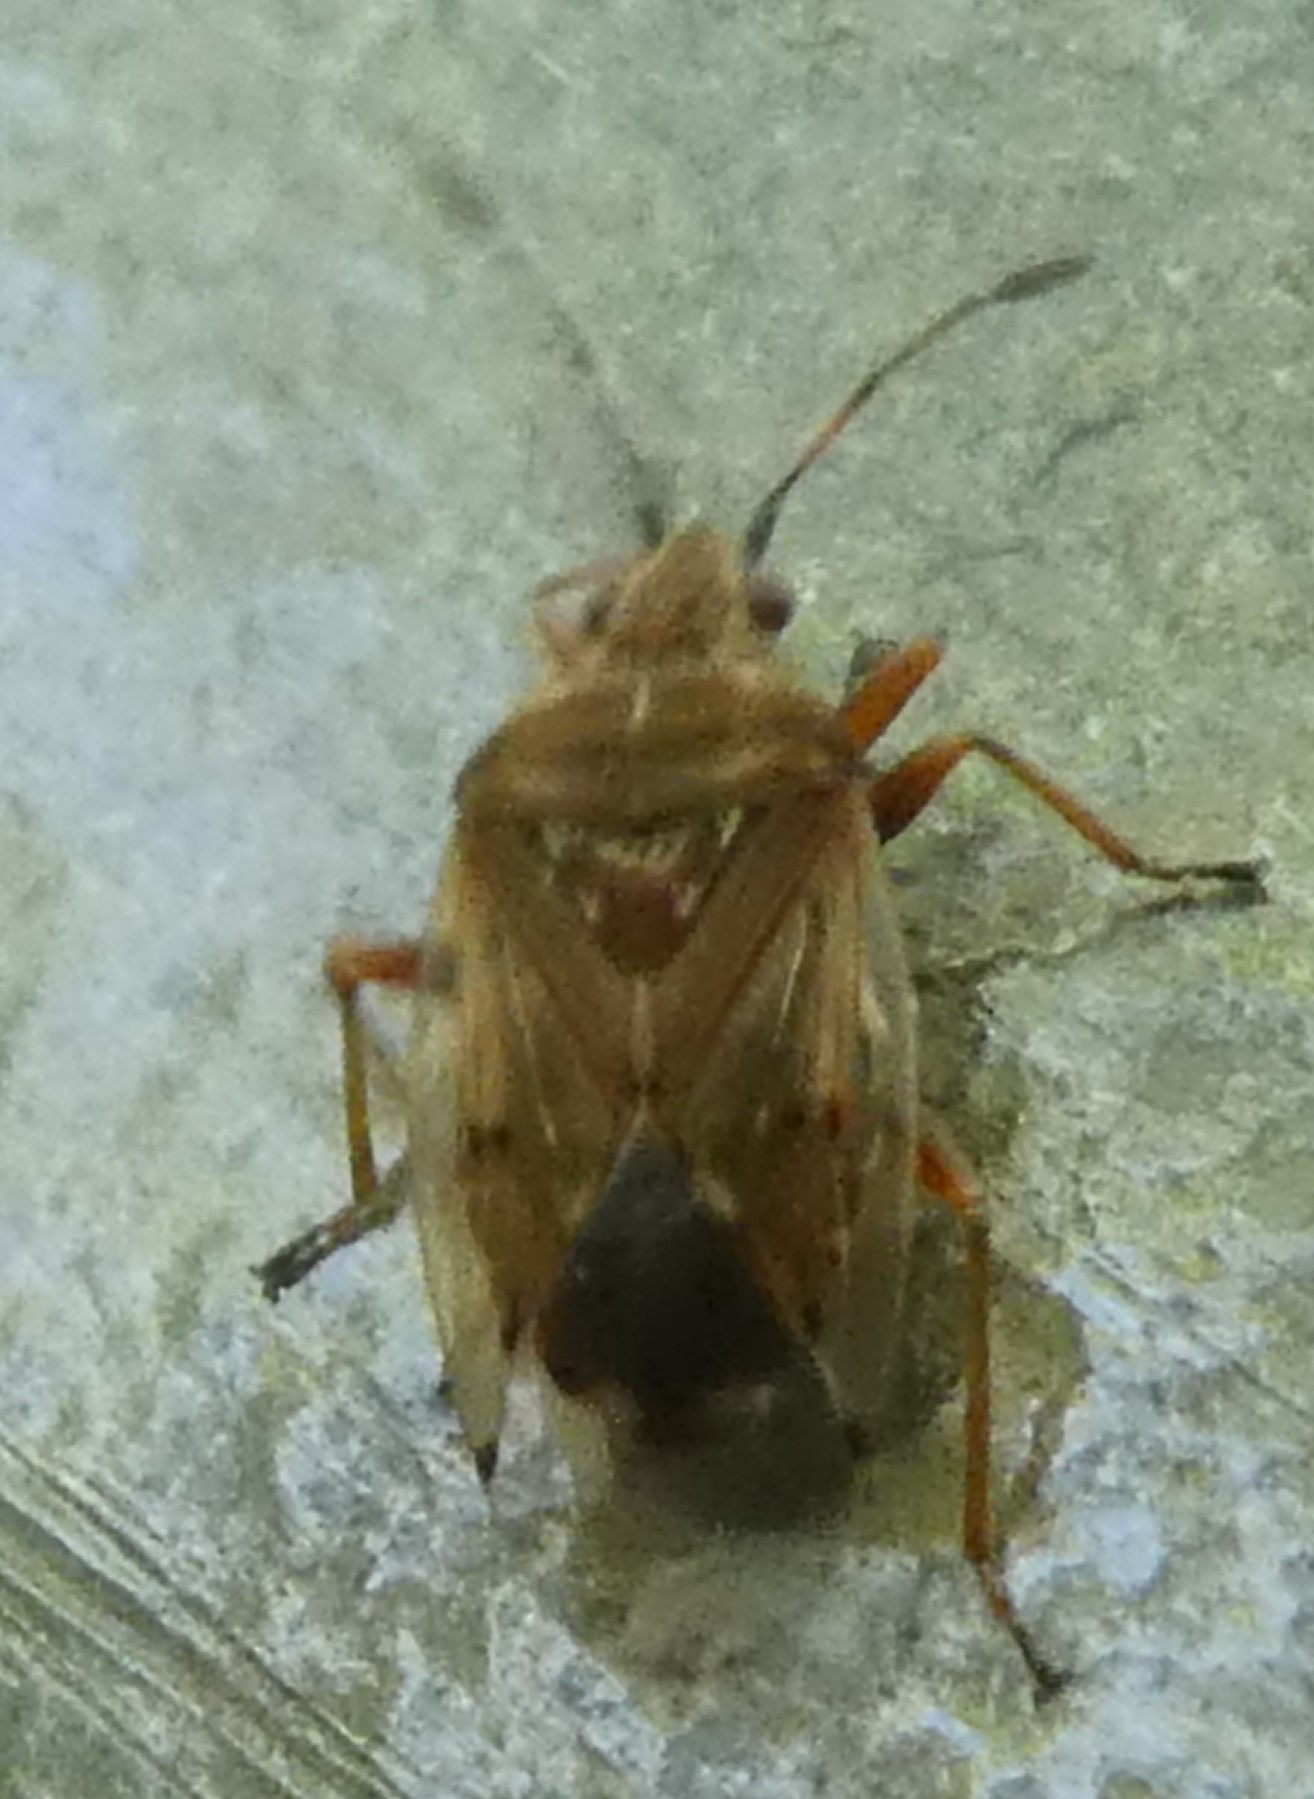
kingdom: Animalia
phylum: Arthropoda
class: Insecta
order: Hemiptera
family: Lygaeidae
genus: Kleidocerys
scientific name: Kleidocerys resedae
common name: Birch catkin bug
